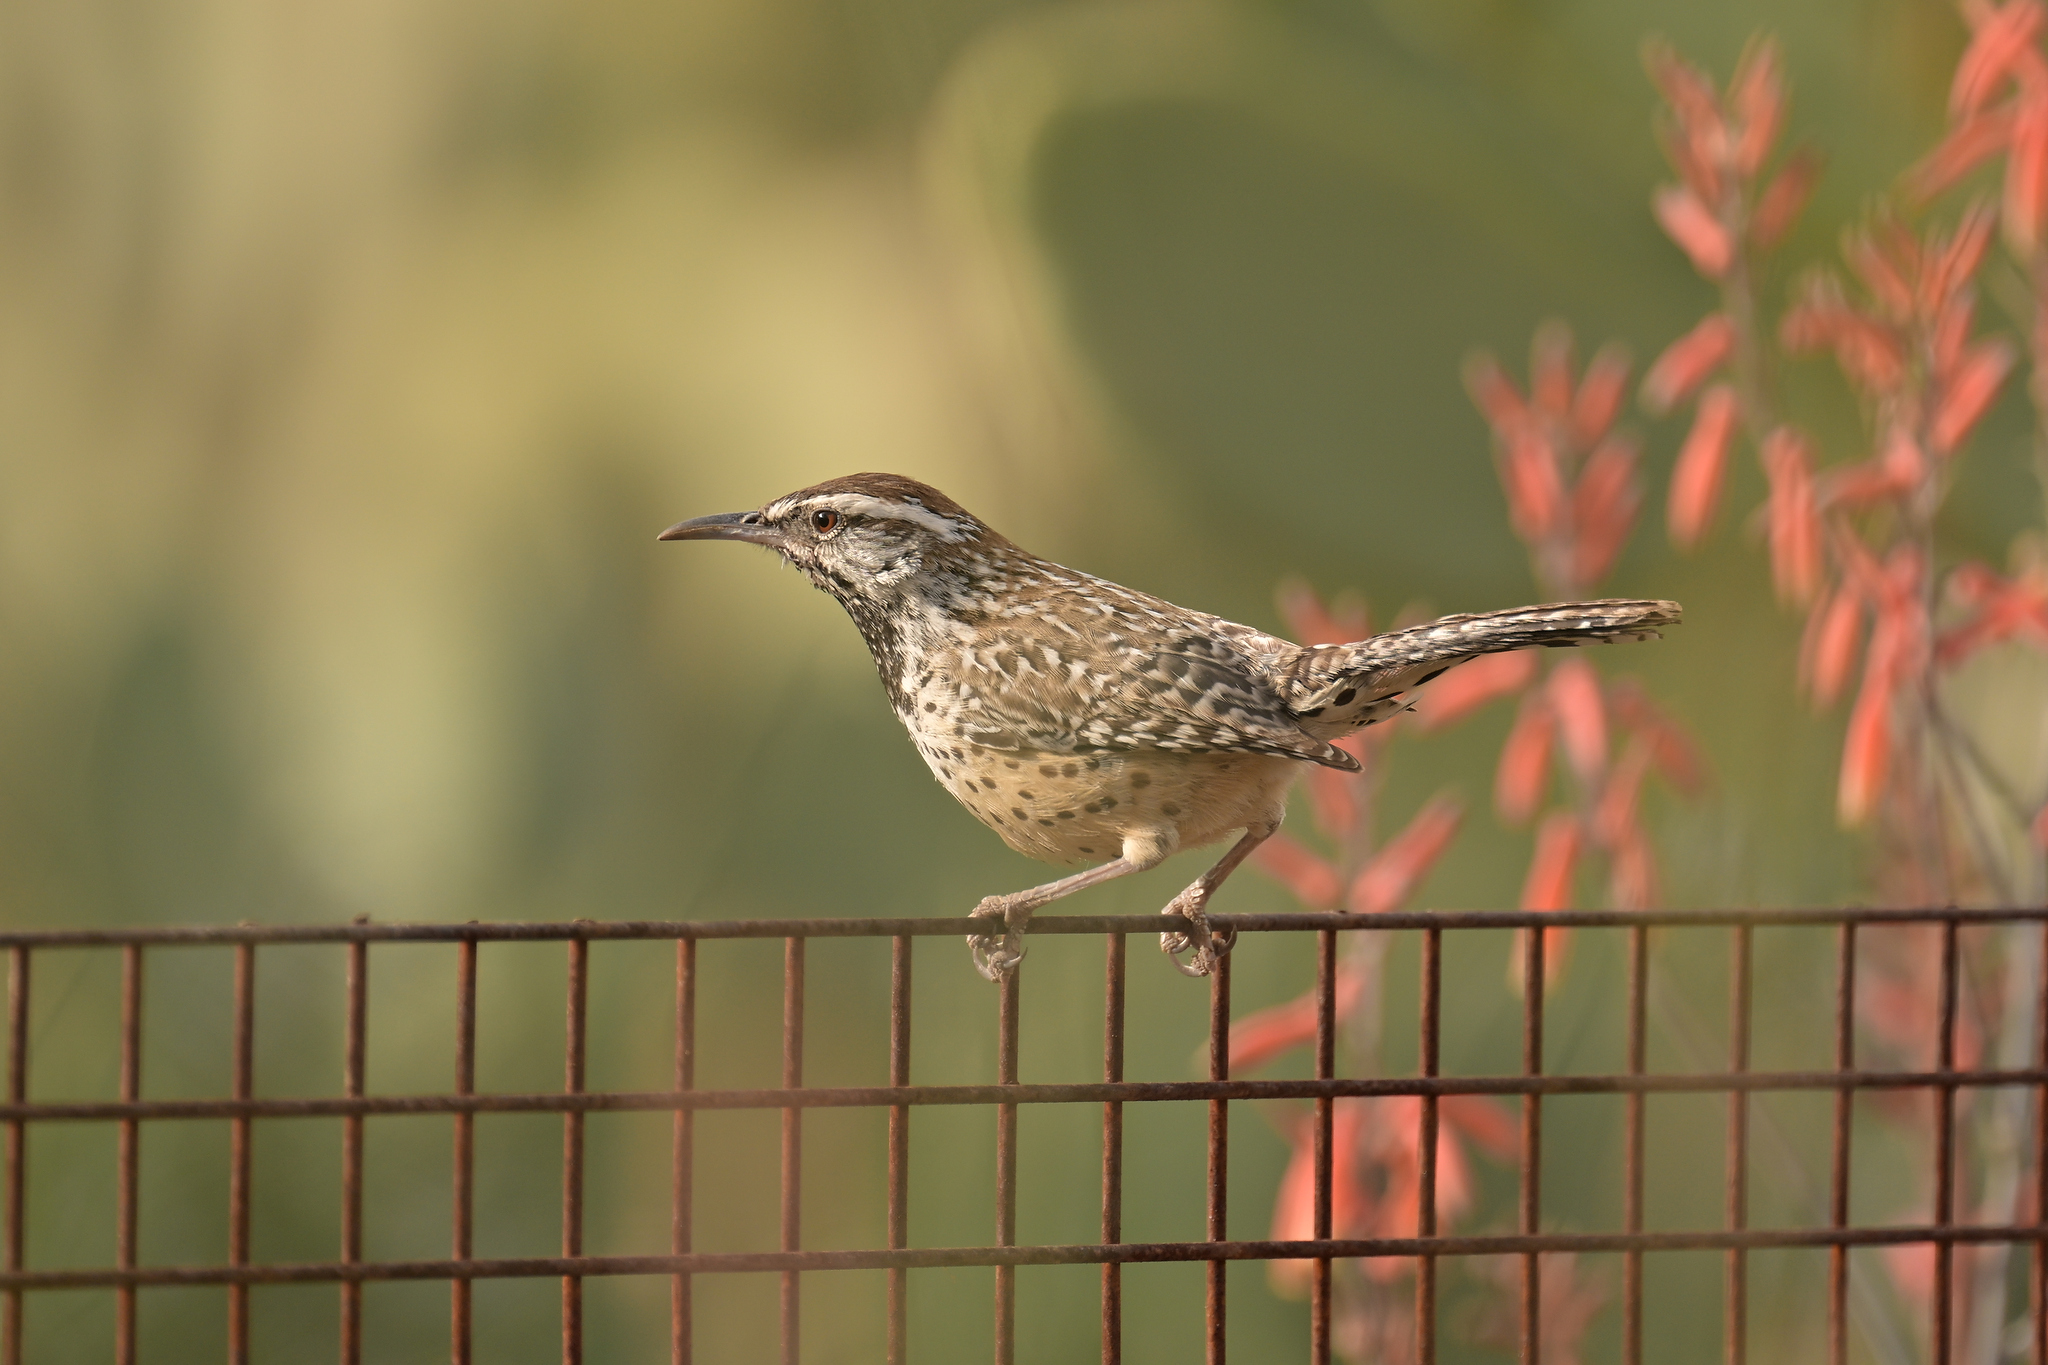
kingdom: Animalia
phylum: Chordata
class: Aves
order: Passeriformes
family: Troglodytidae
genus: Campylorhynchus
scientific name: Campylorhynchus brunneicapillus
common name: Cactus wren
